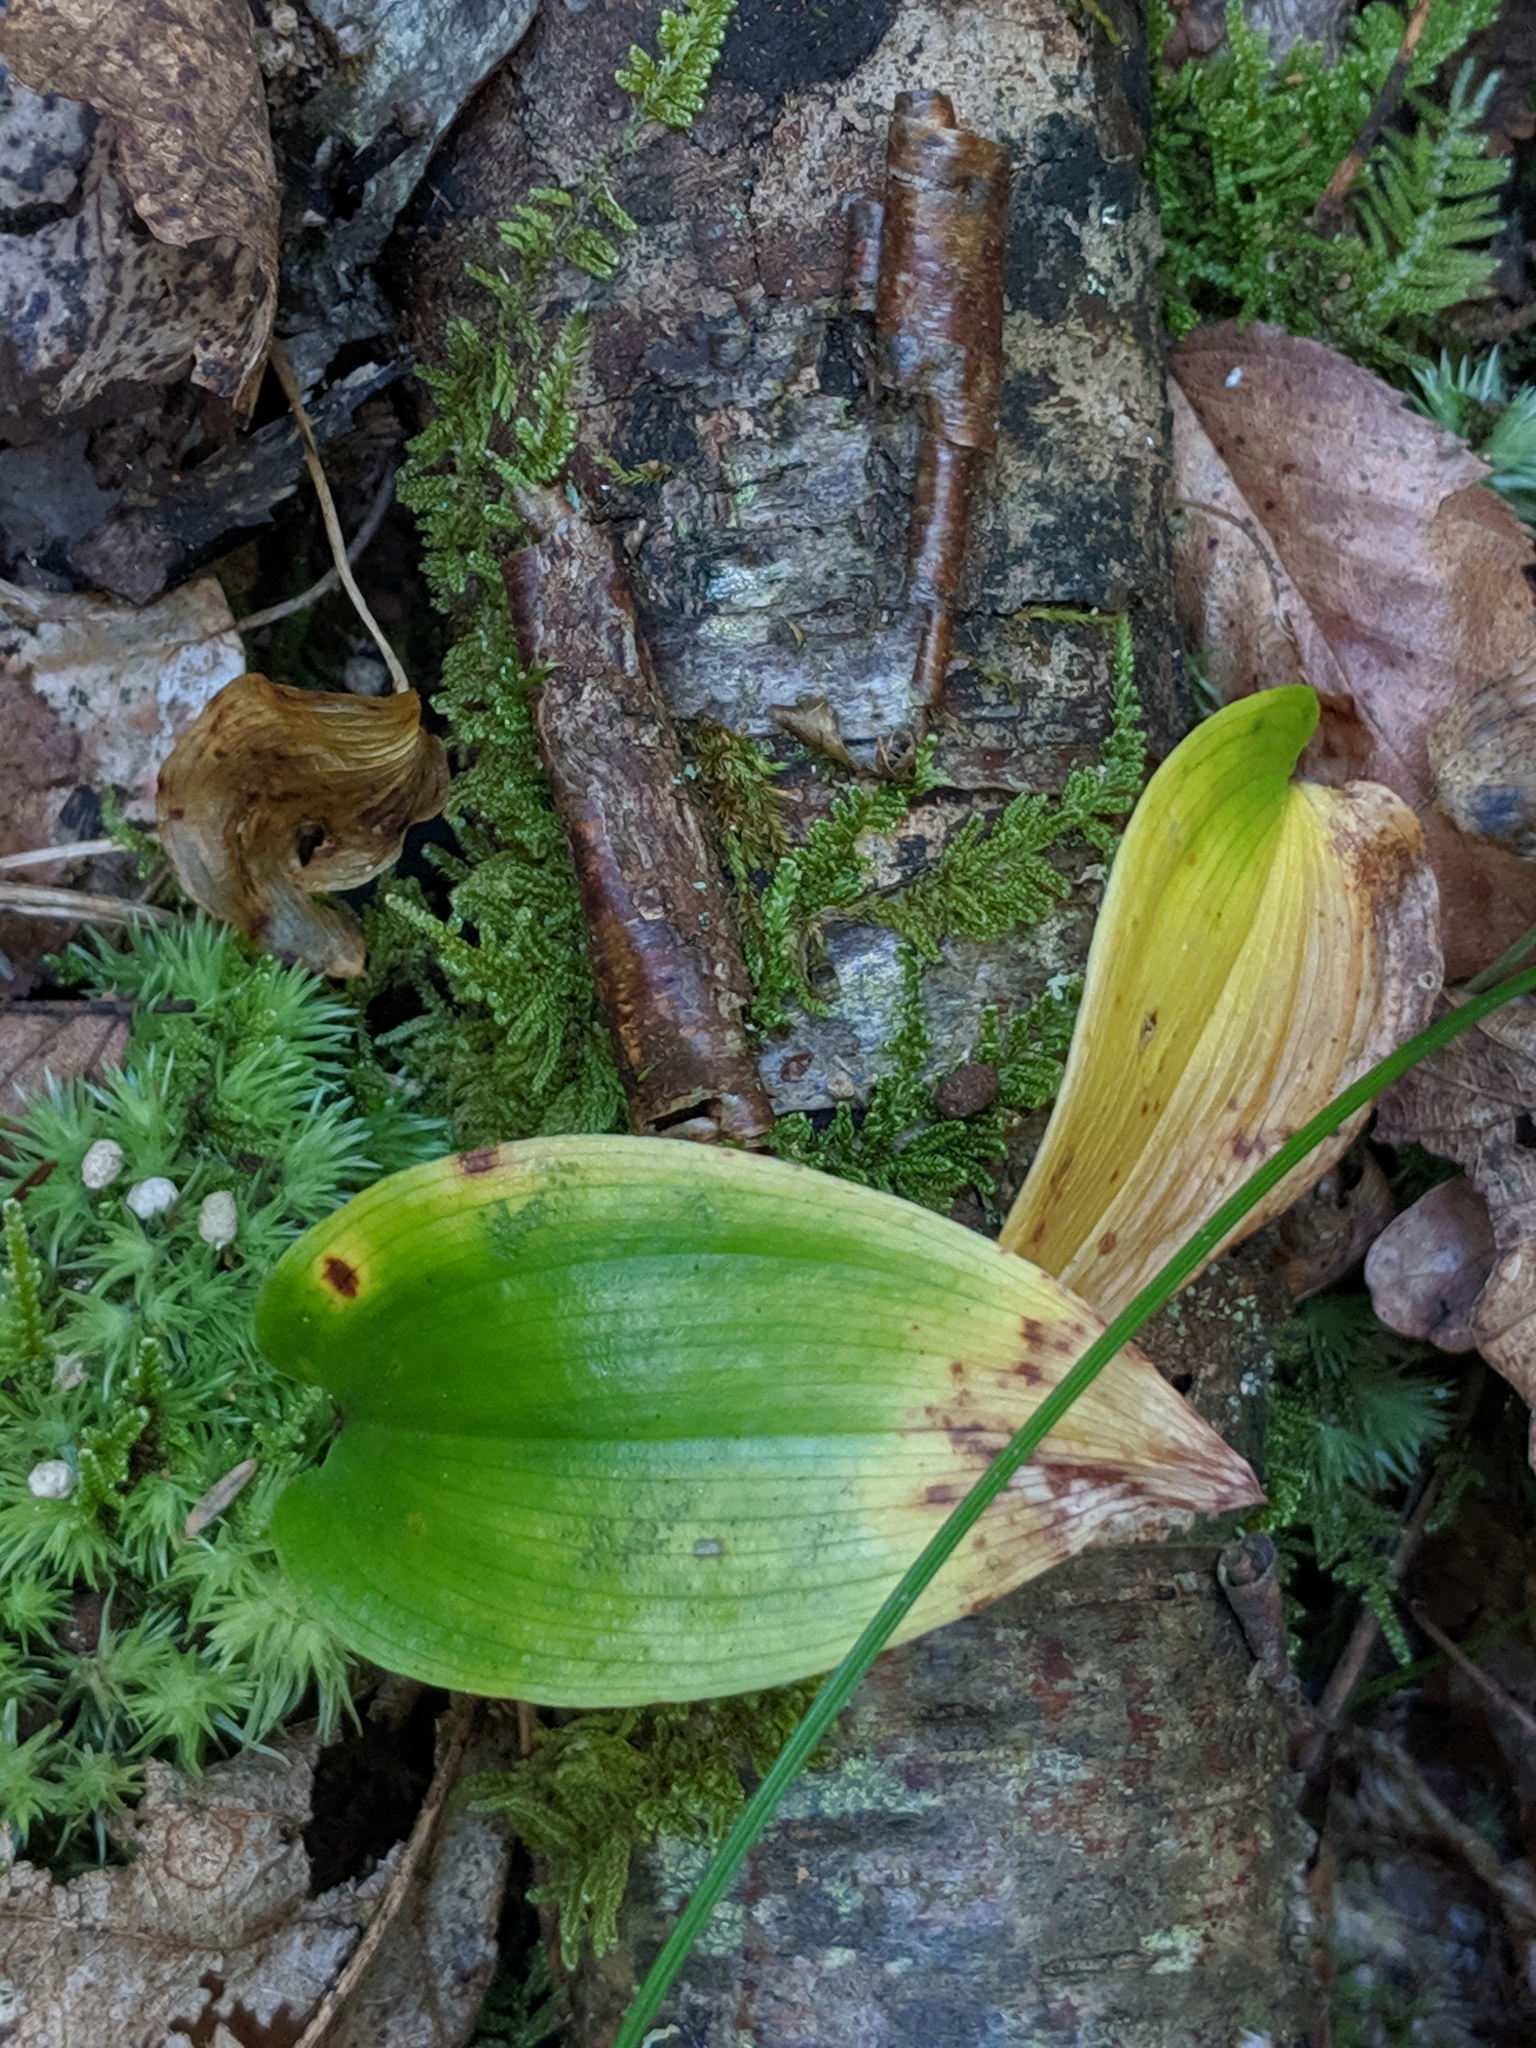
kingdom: Plantae
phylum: Tracheophyta
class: Liliopsida
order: Asparagales
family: Asparagaceae
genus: Maianthemum
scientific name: Maianthemum canadense
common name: False lily-of-the-valley
